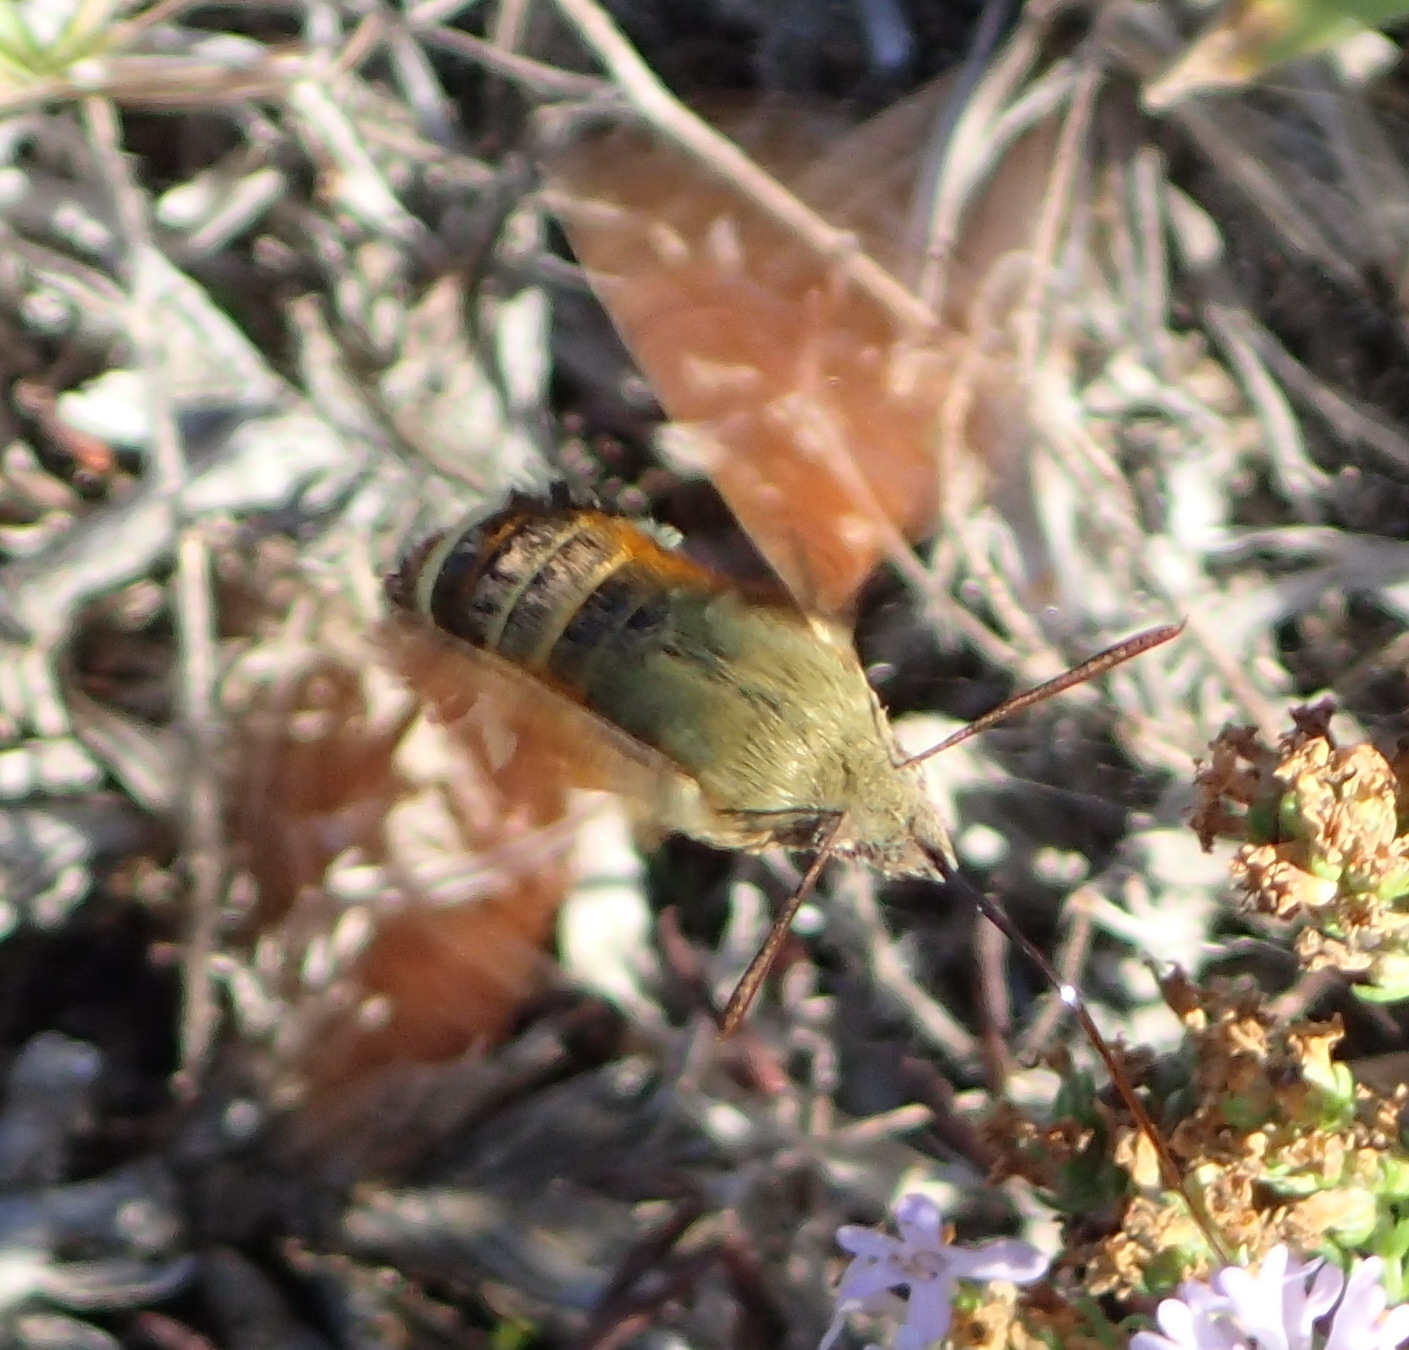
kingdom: Animalia
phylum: Arthropoda
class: Insecta
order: Lepidoptera
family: Sphingidae
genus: Macroglossum
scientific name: Macroglossum trochilus
